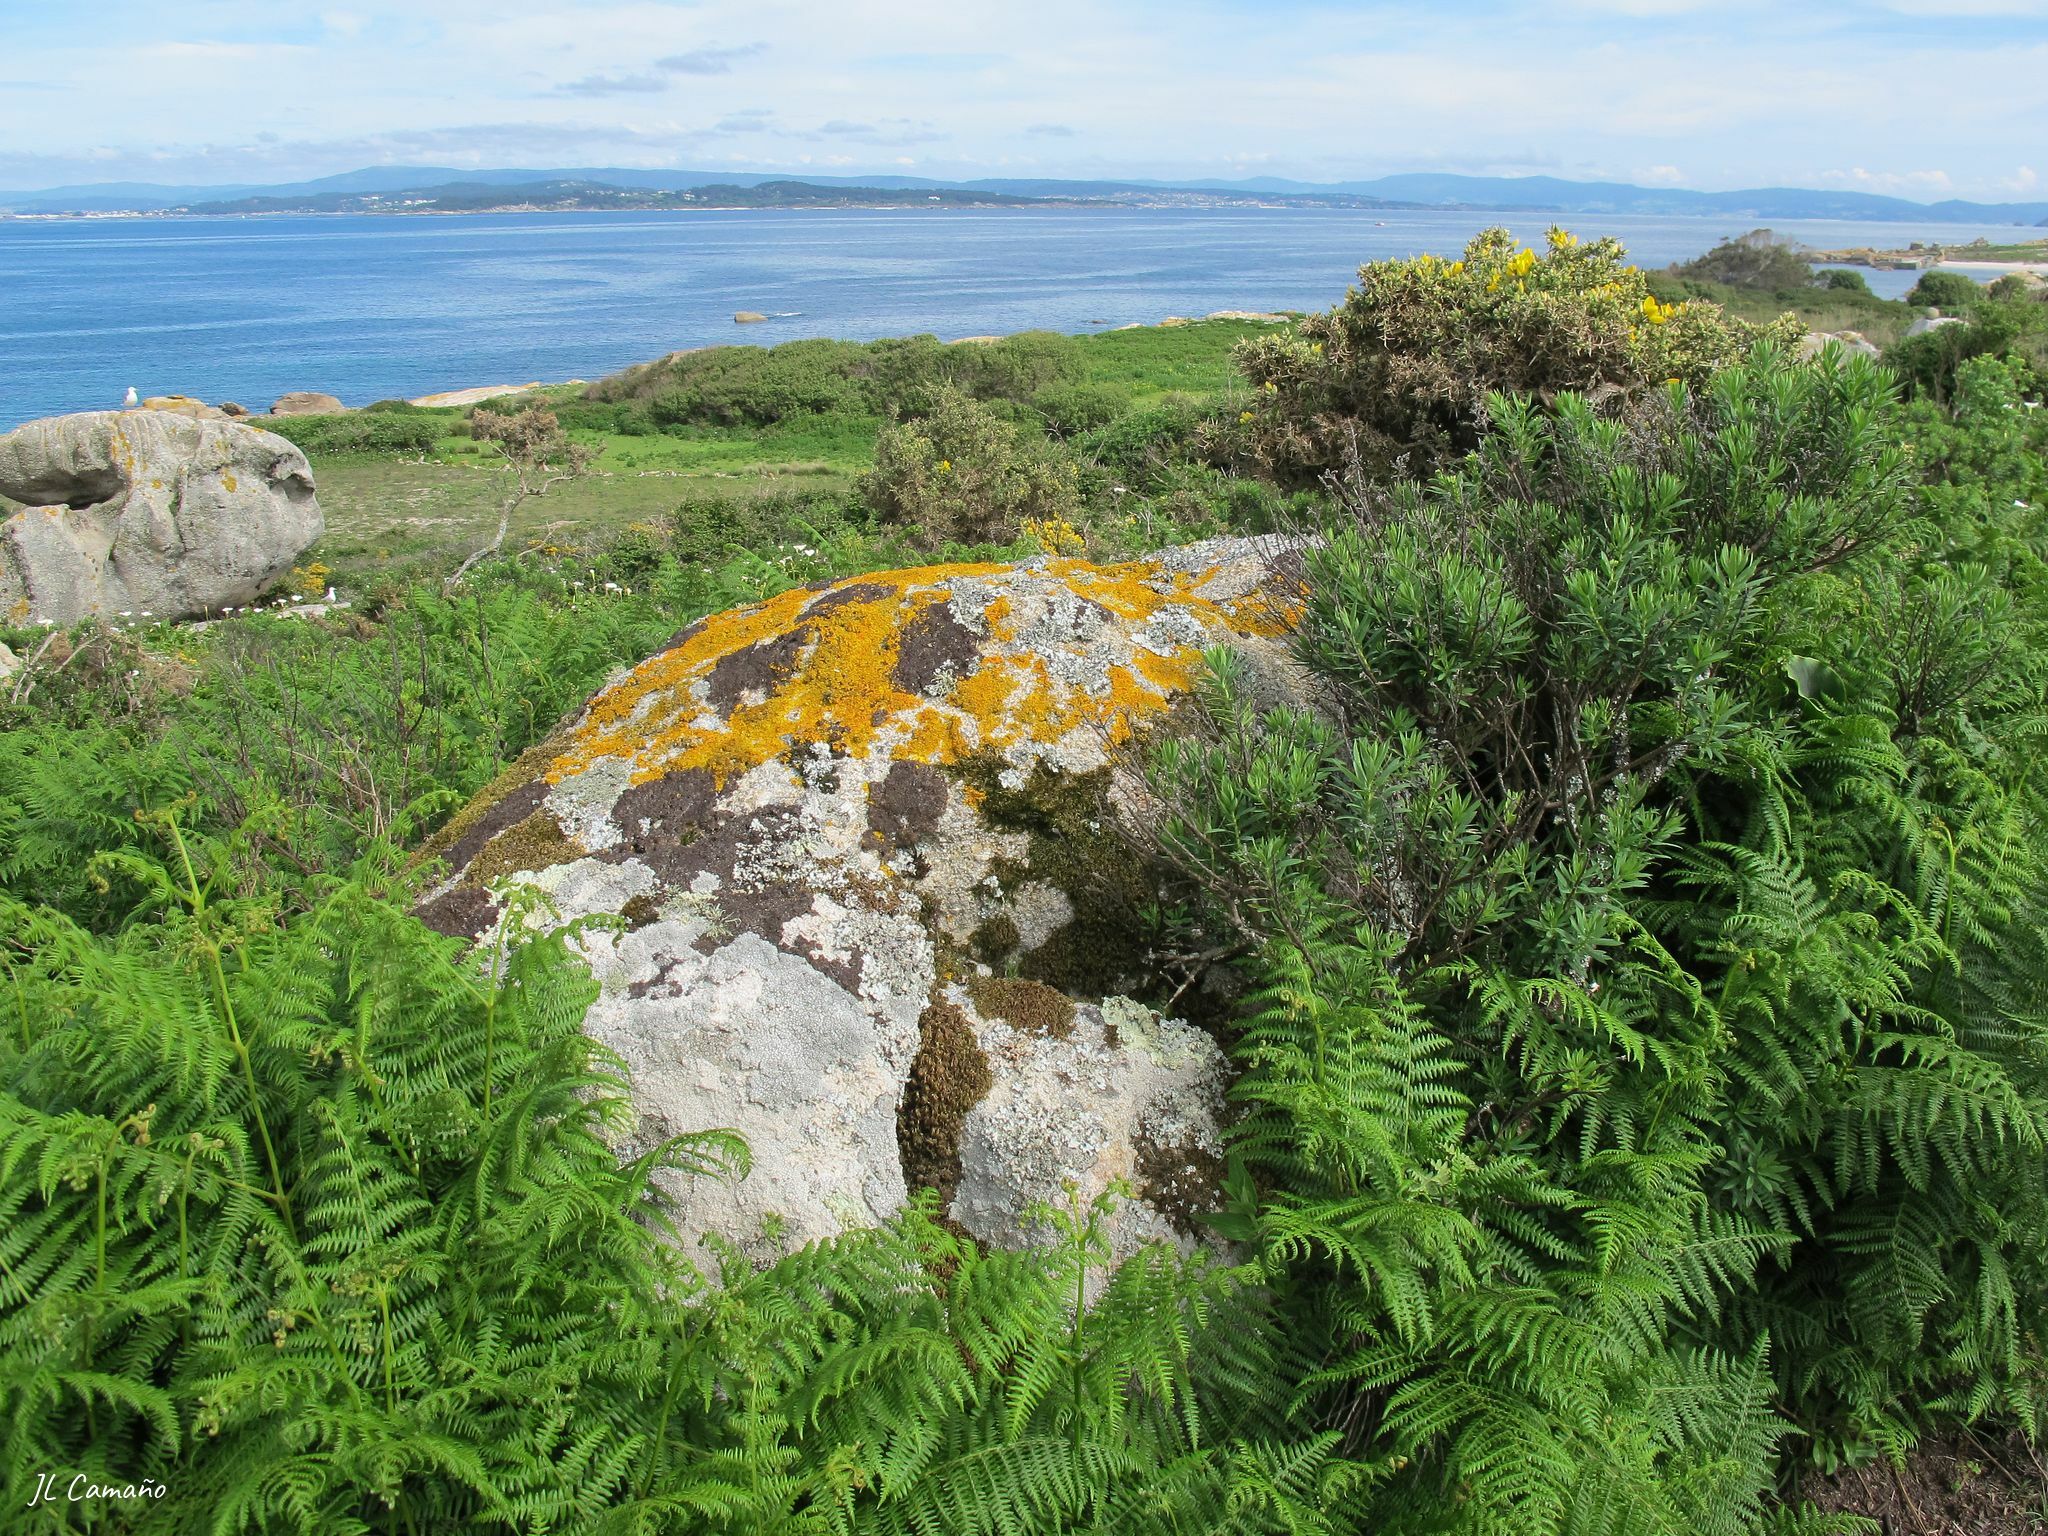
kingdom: Plantae
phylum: Bryophyta
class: Bryopsida
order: Hypnales
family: Lembophyllaceae
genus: Nogopterium
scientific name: Nogopterium gracile
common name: Bird's-foot wing-moss
